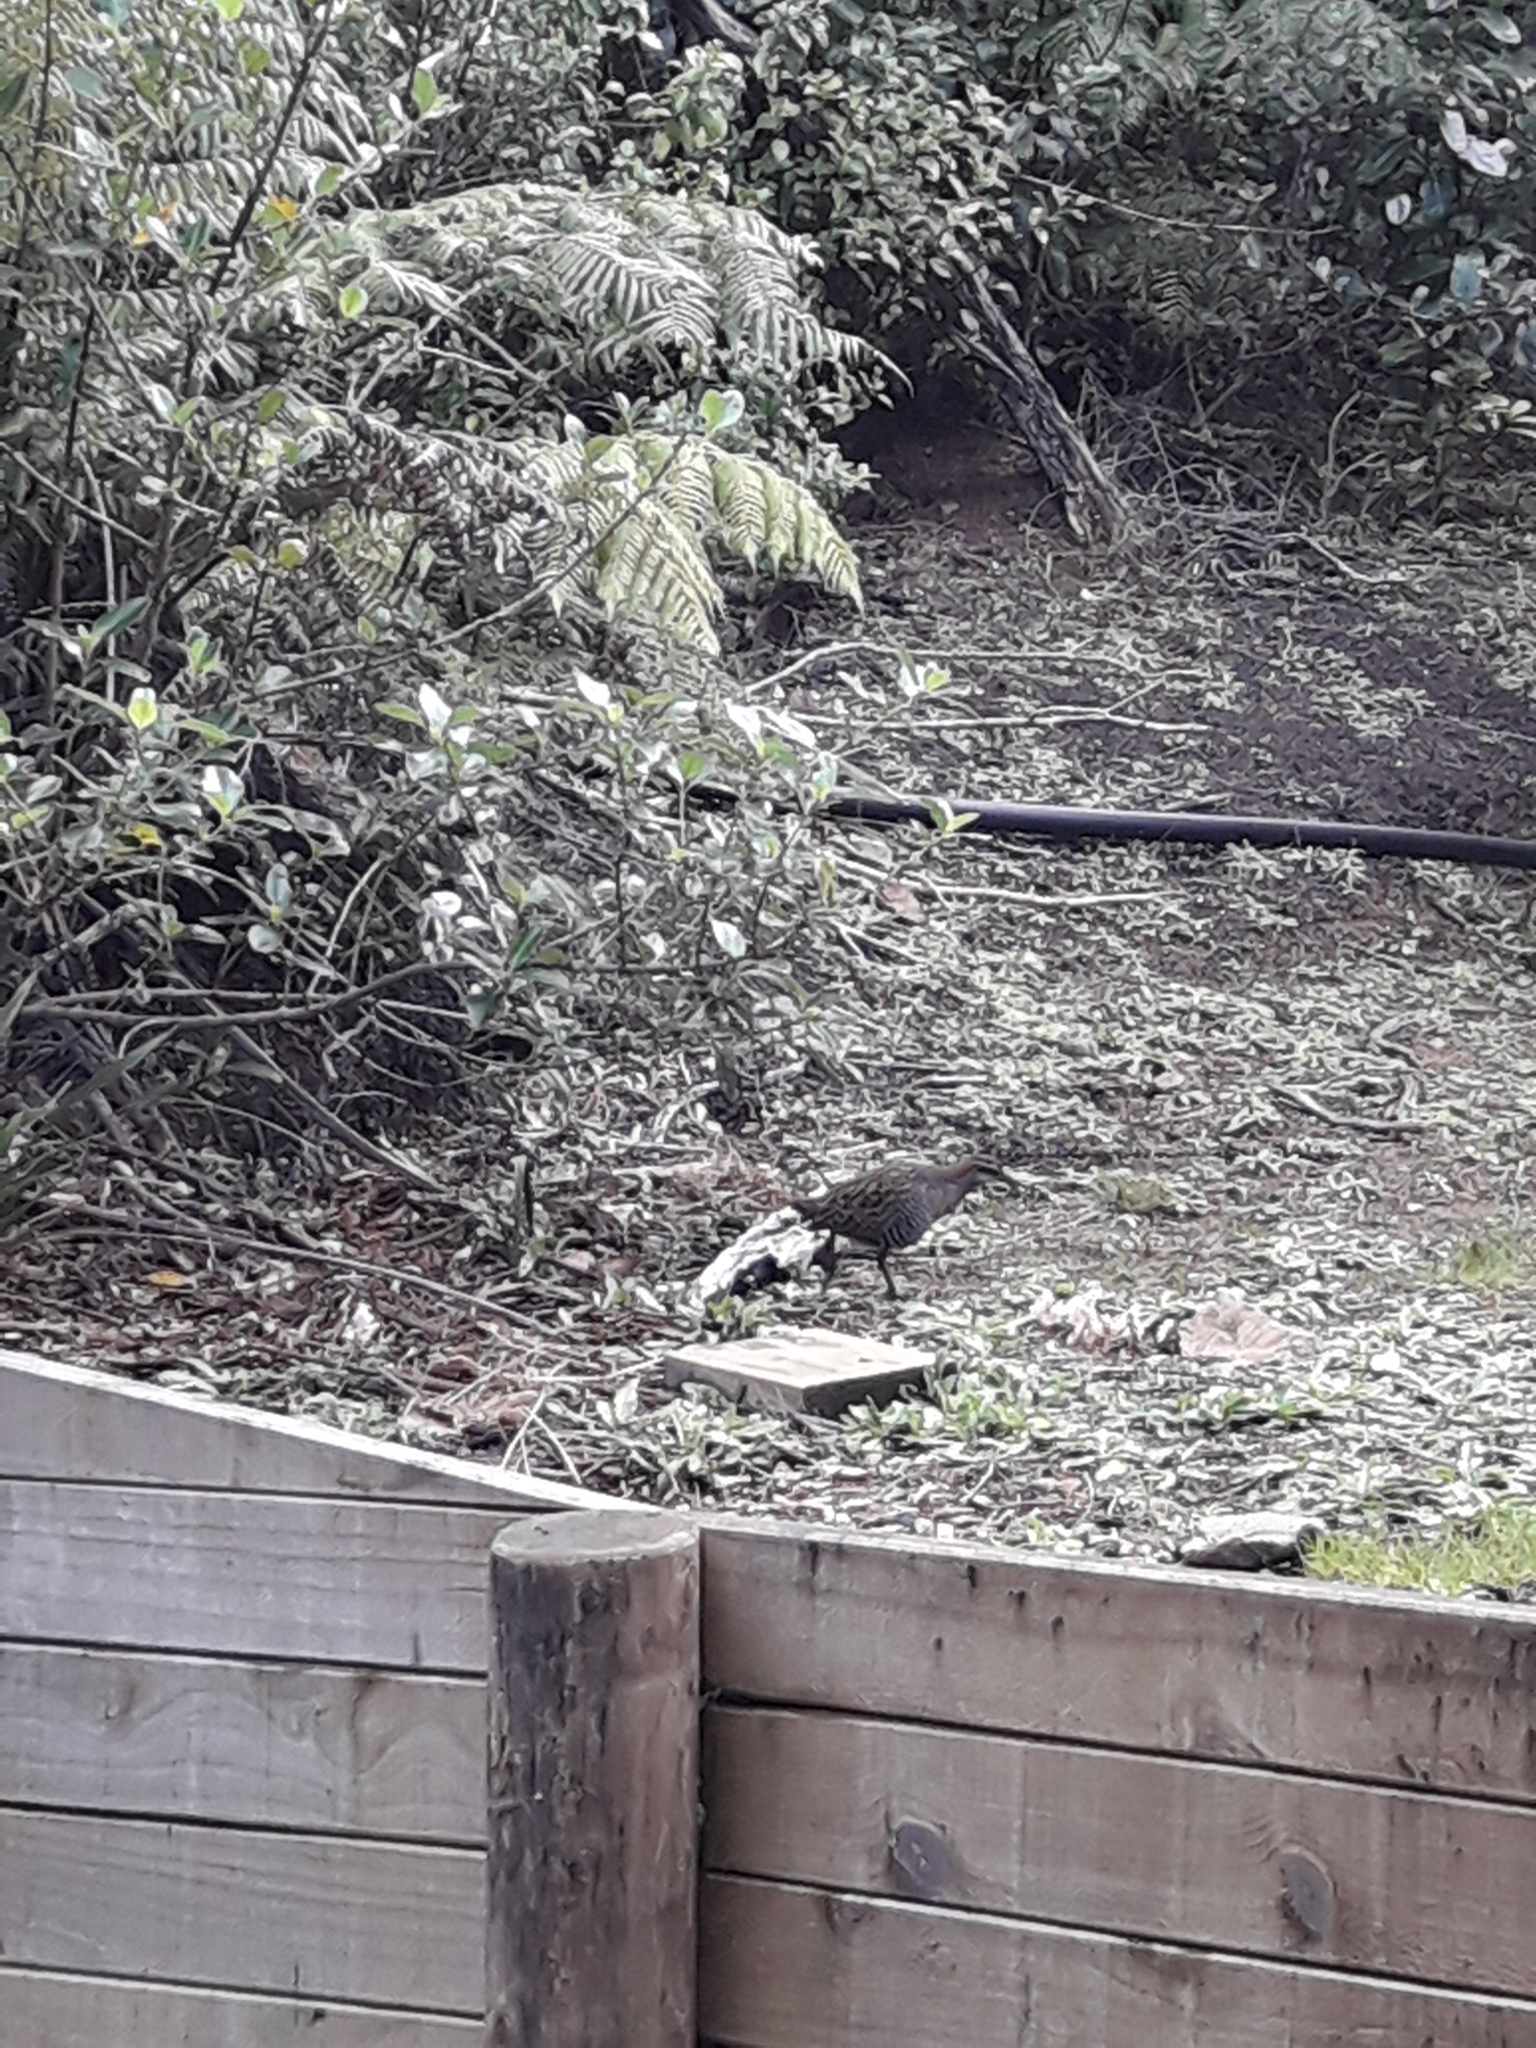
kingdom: Animalia
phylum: Chordata
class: Aves
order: Gruiformes
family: Rallidae
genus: Gallirallus
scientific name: Gallirallus philippensis
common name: Buff-banded rail
